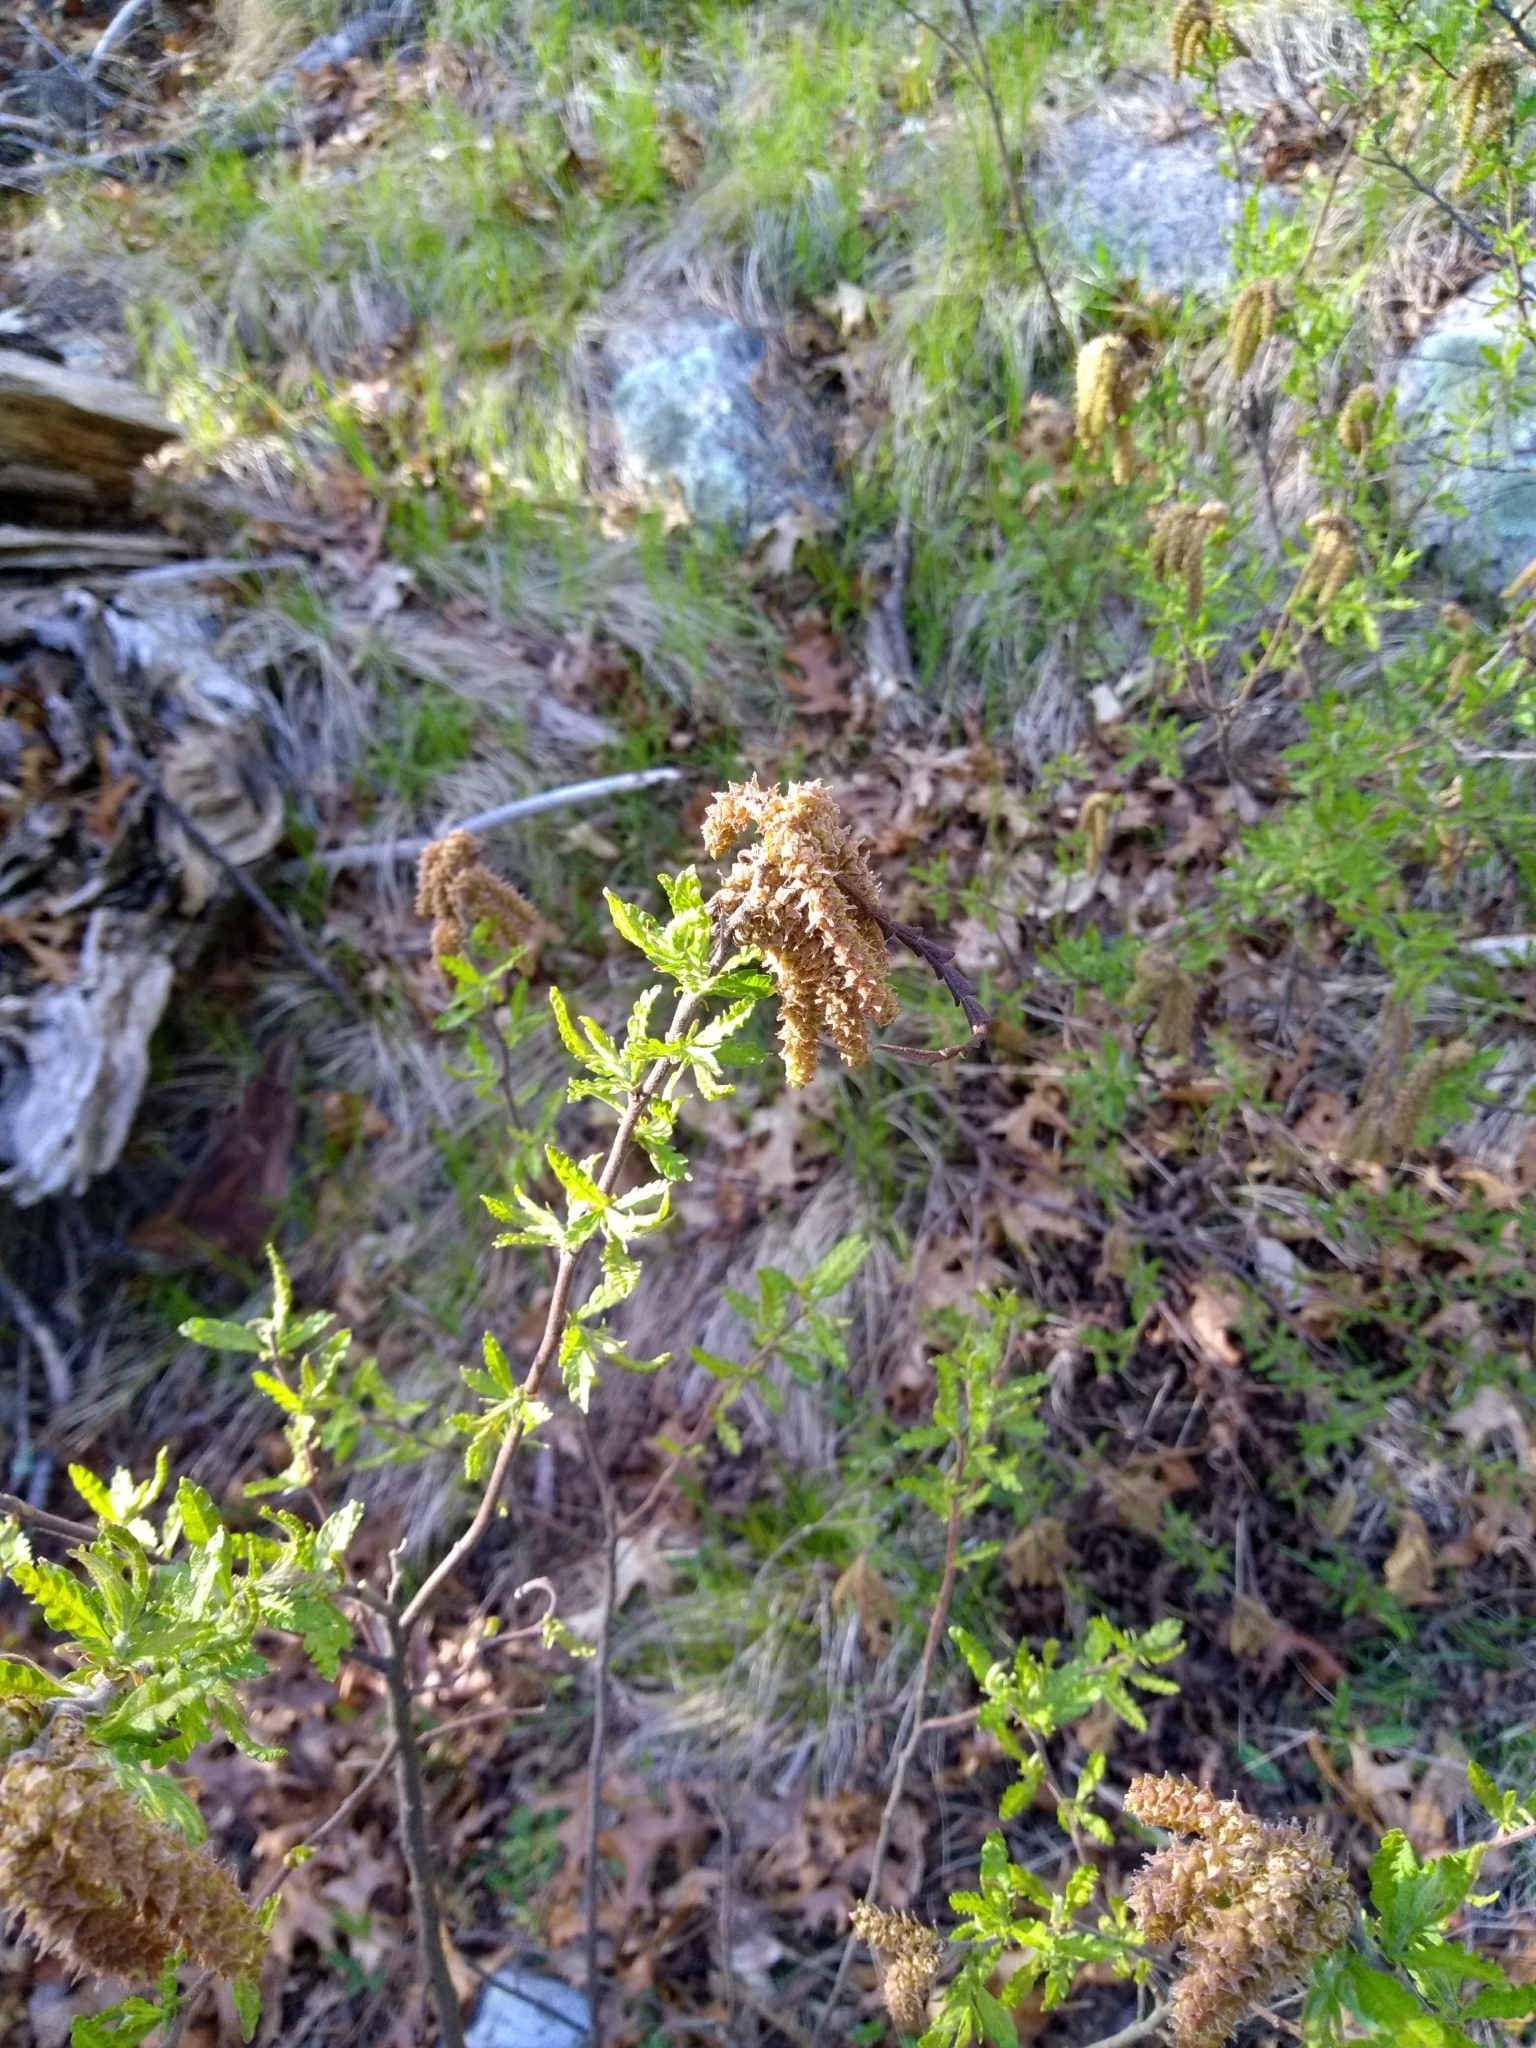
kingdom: Plantae
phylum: Tracheophyta
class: Magnoliopsida
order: Fagales
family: Myricaceae
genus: Comptonia
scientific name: Comptonia peregrina
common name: Sweet-fern
